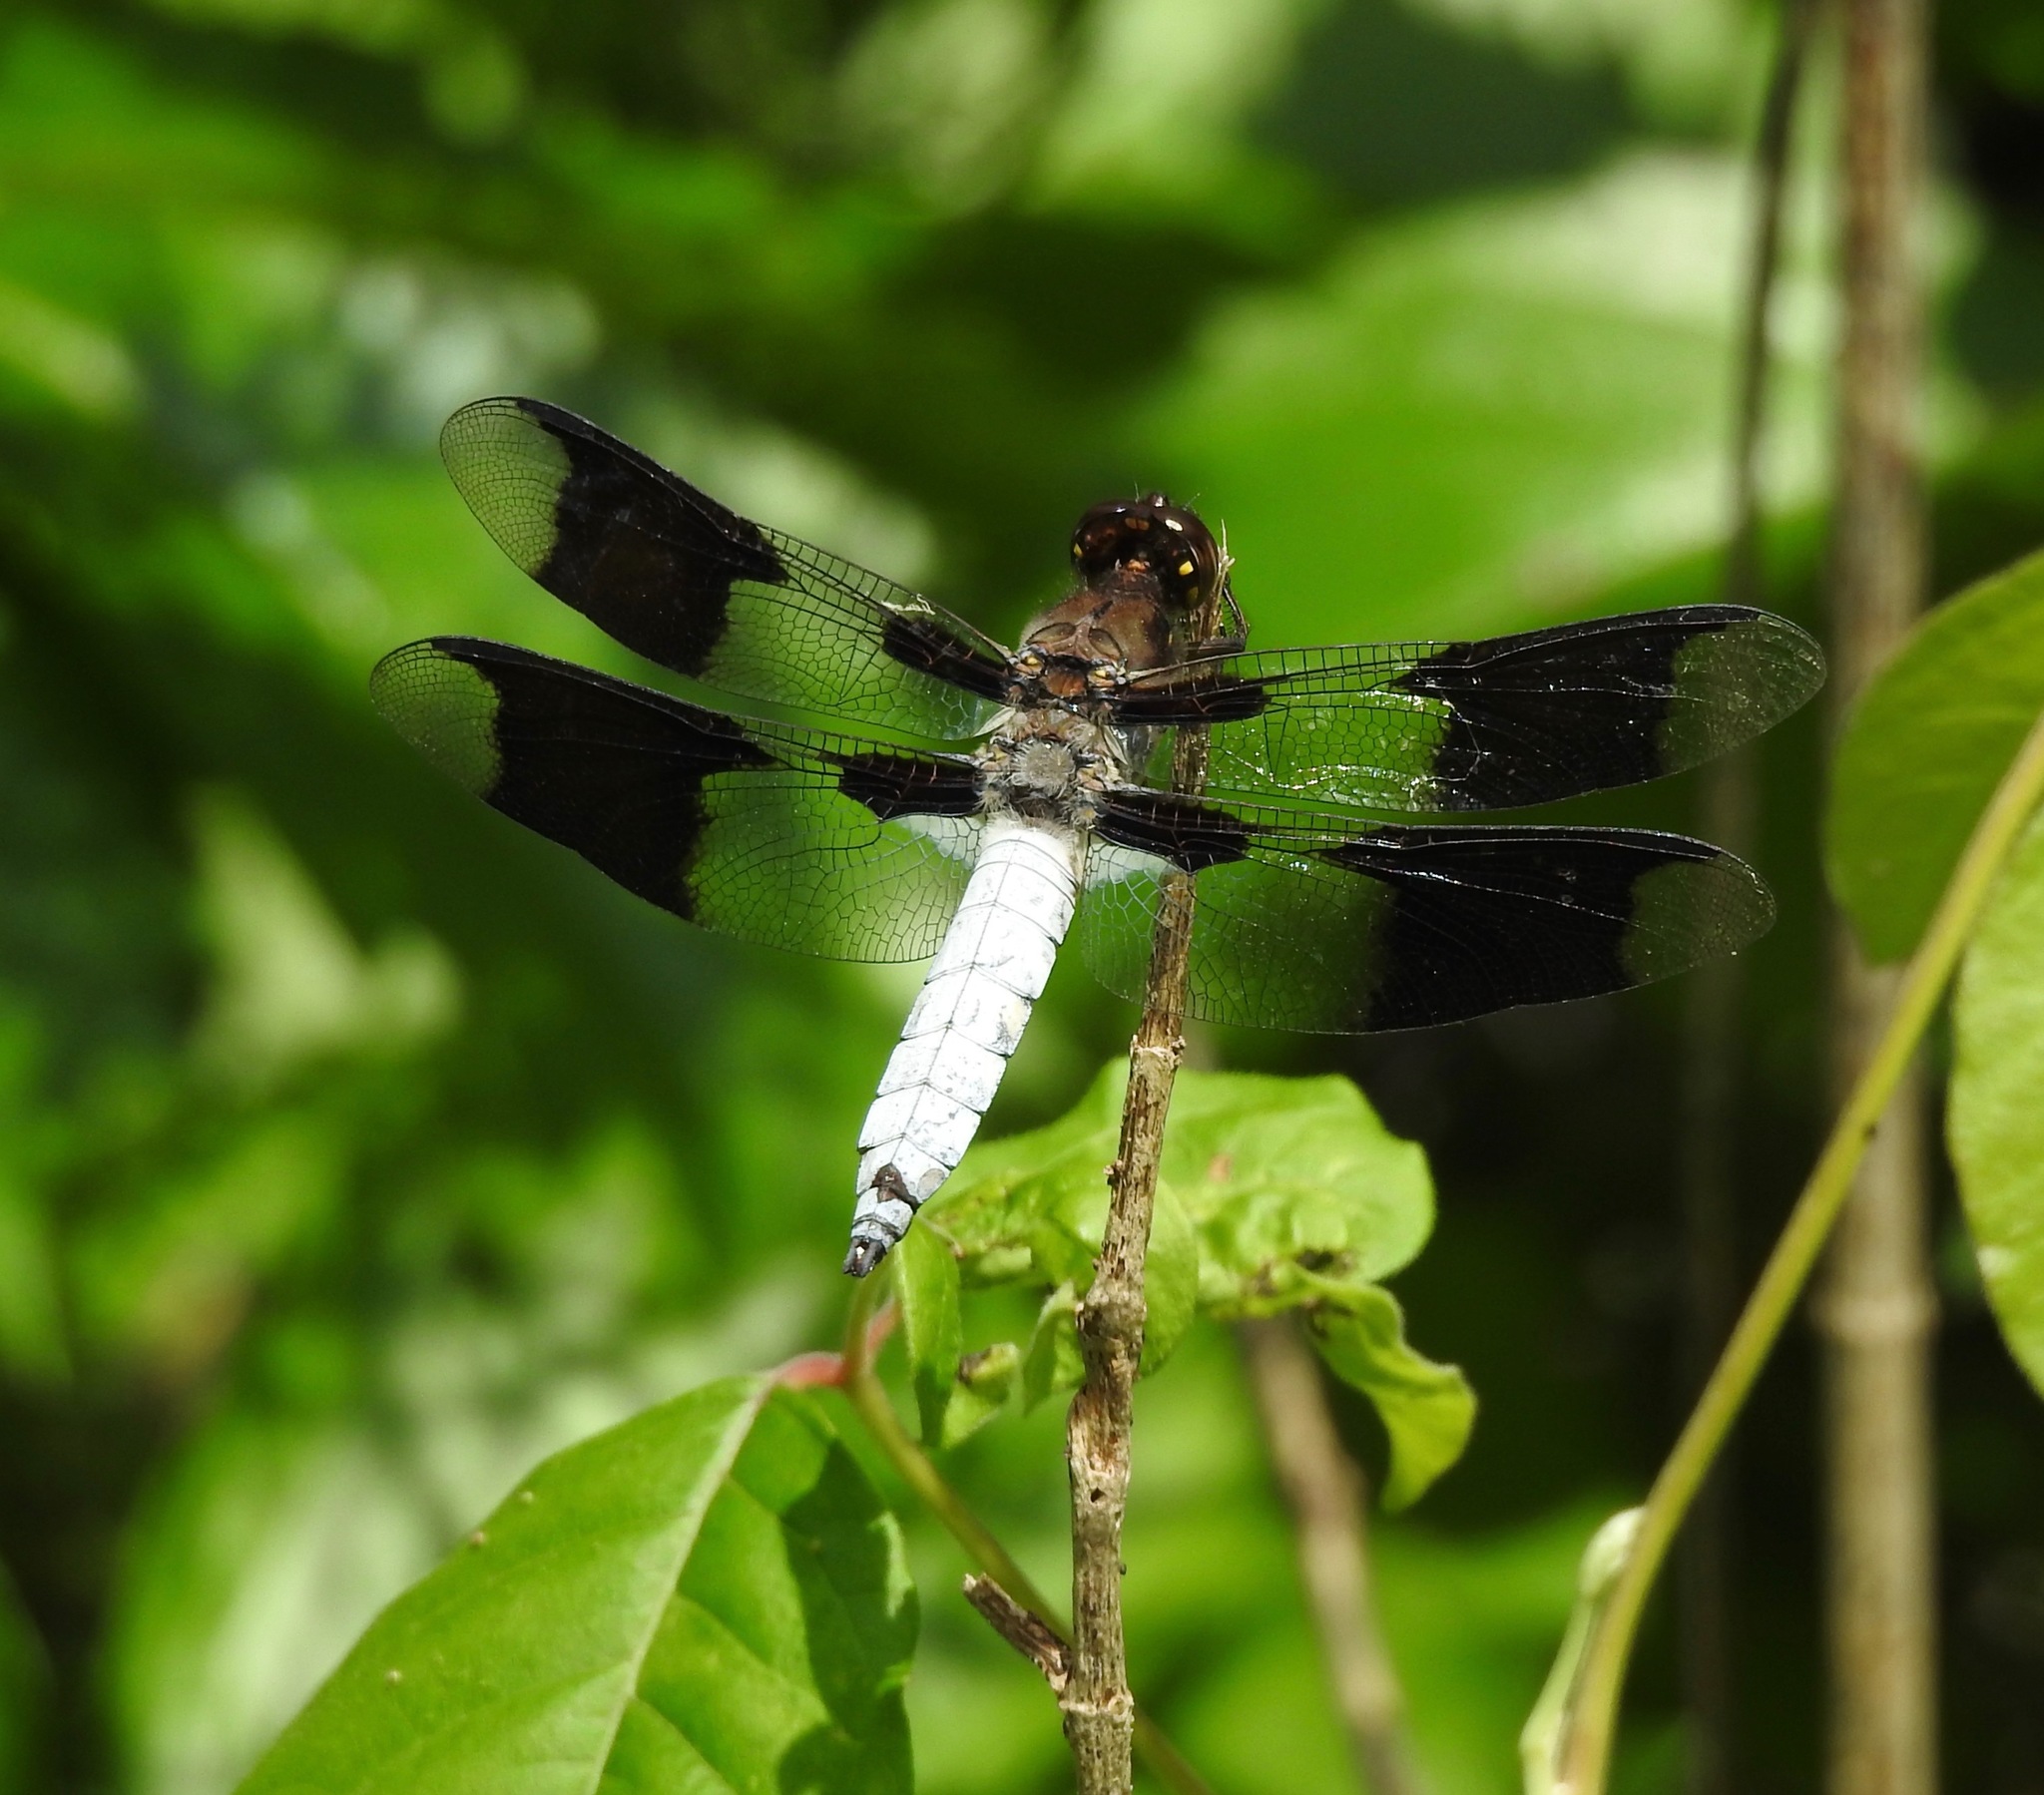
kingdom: Animalia
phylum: Arthropoda
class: Insecta
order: Odonata
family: Libellulidae
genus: Plathemis
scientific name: Plathemis lydia
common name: Common whitetail
